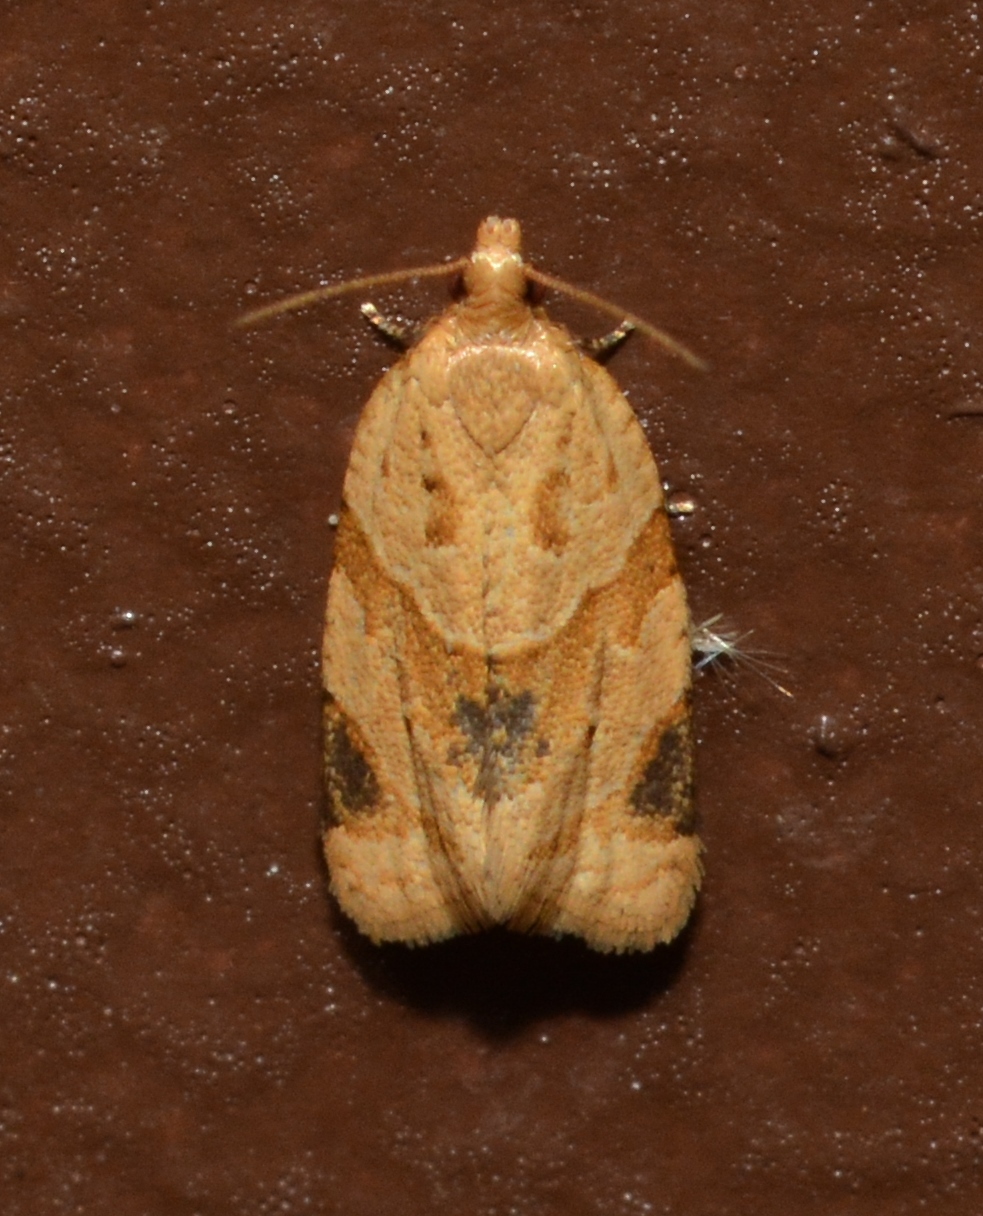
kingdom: Animalia
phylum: Arthropoda
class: Insecta
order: Lepidoptera
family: Tortricidae
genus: Clepsis
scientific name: Clepsis peritana
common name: Garden tortrix
